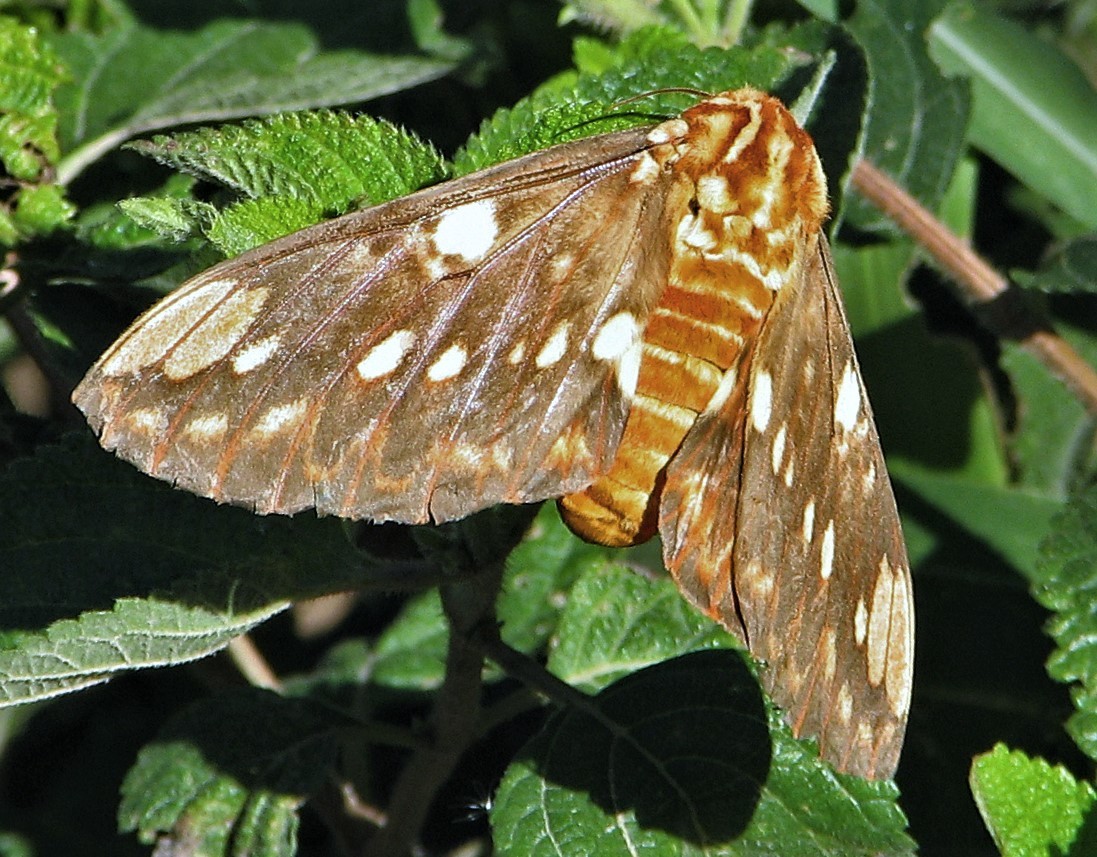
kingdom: Animalia
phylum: Arthropoda
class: Insecta
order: Lepidoptera
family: Saturniidae
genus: Citheronia
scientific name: Citheronia brissotii
